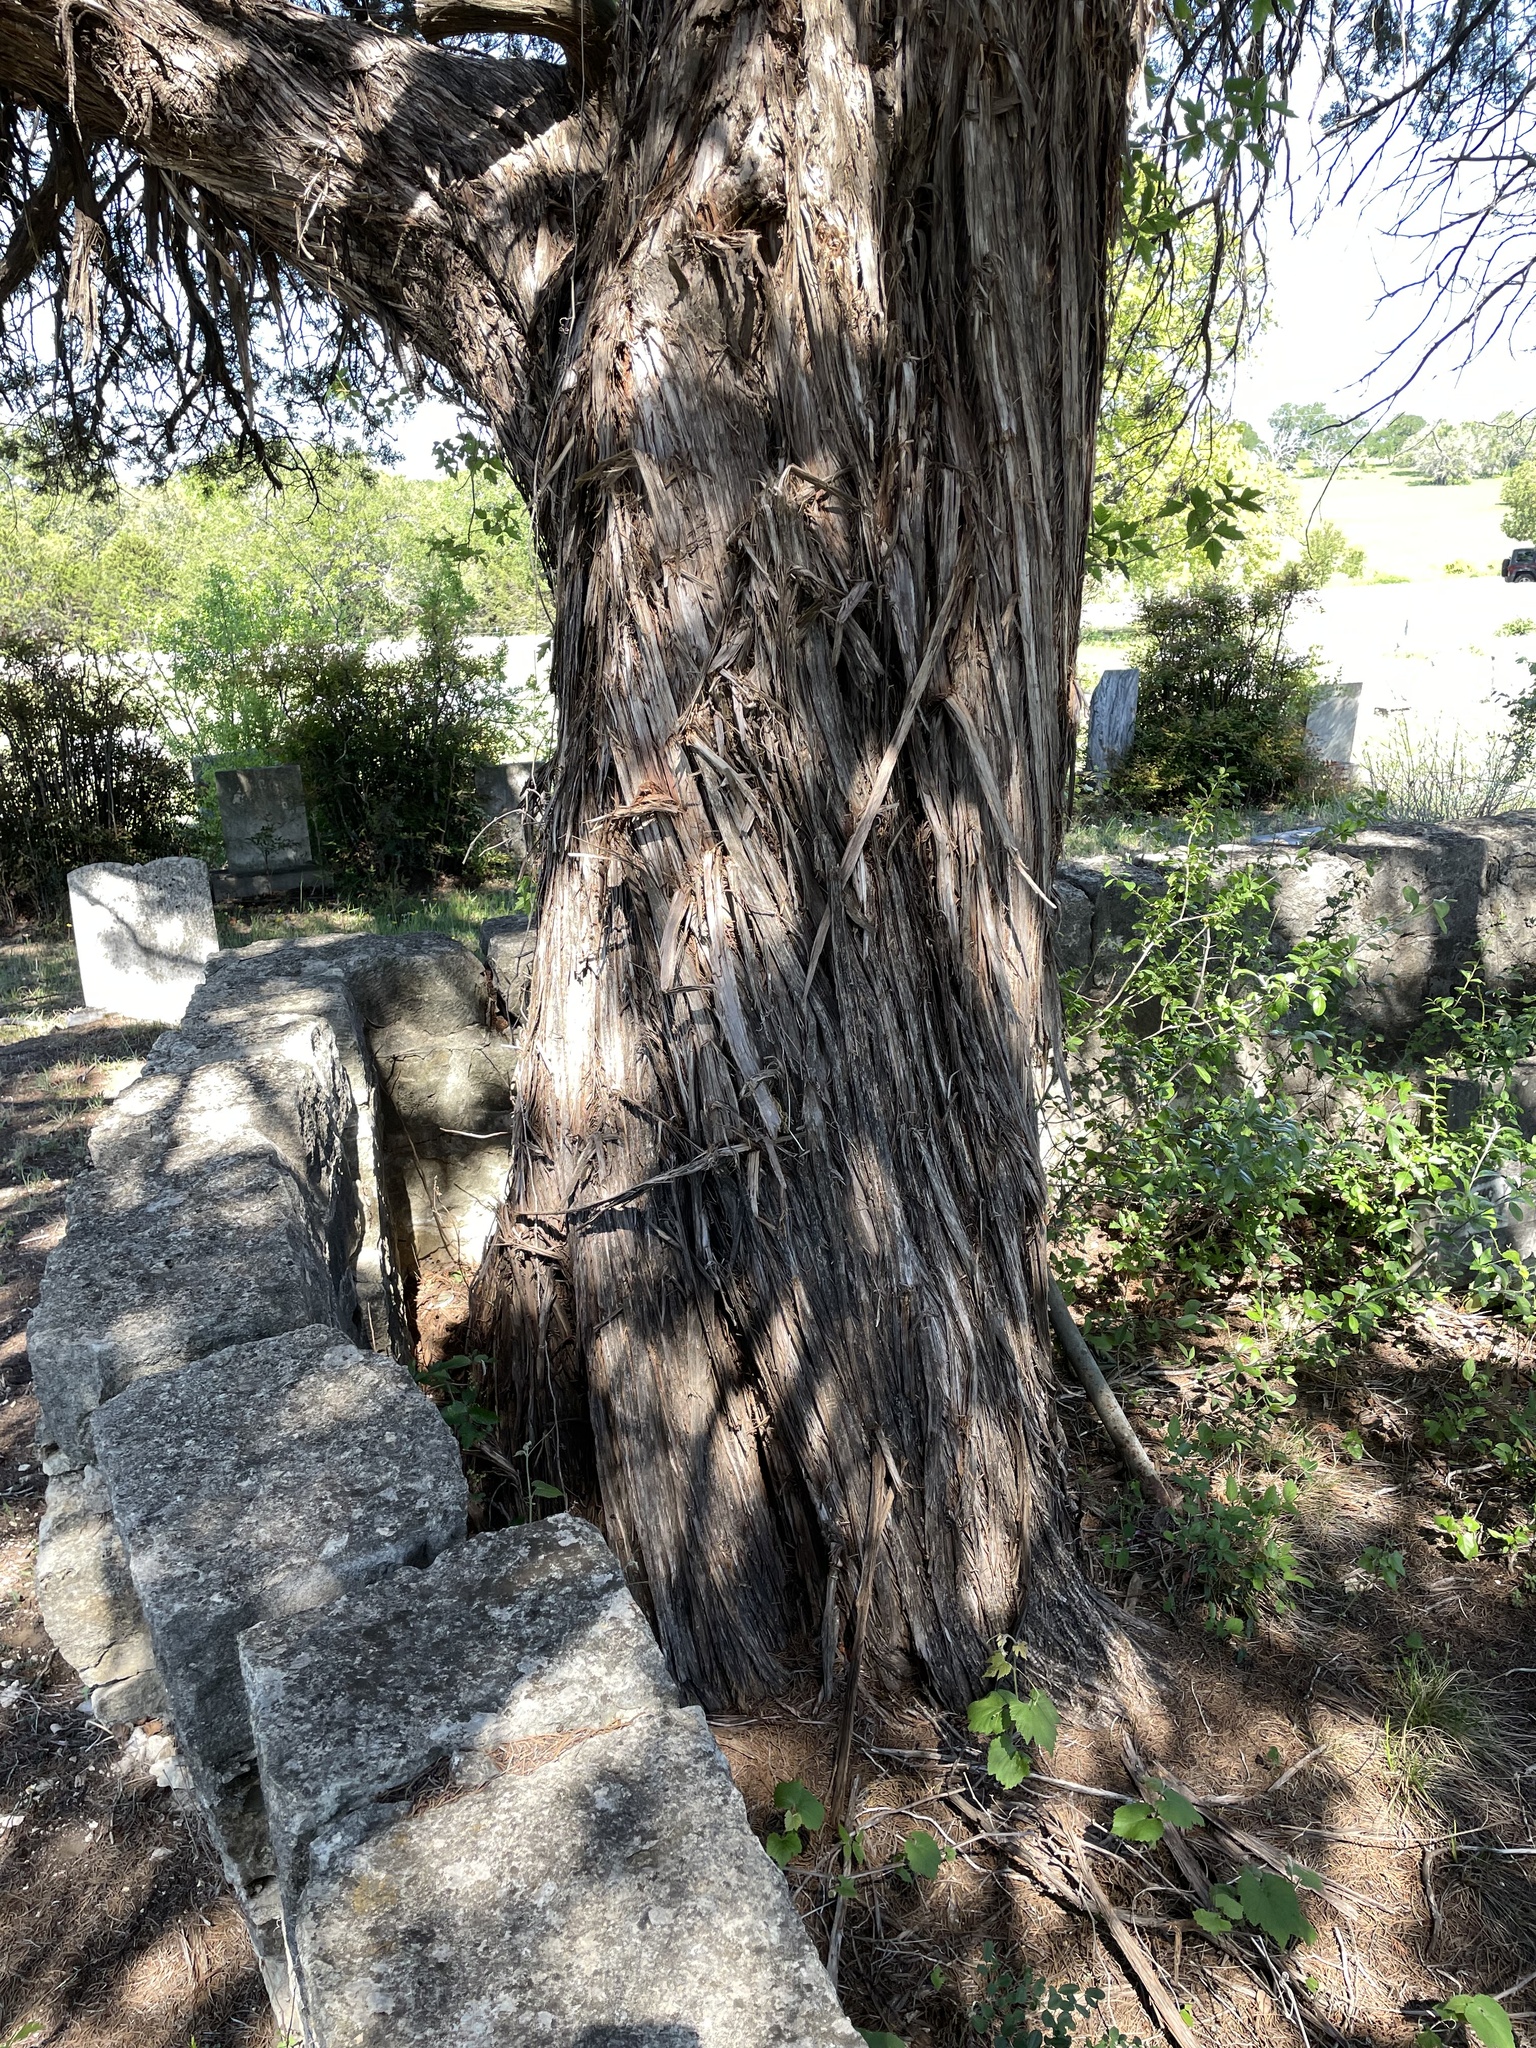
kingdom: Plantae
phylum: Tracheophyta
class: Pinopsida
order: Pinales
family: Cupressaceae
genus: Juniperus
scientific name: Juniperus ashei
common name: Mexican juniper
